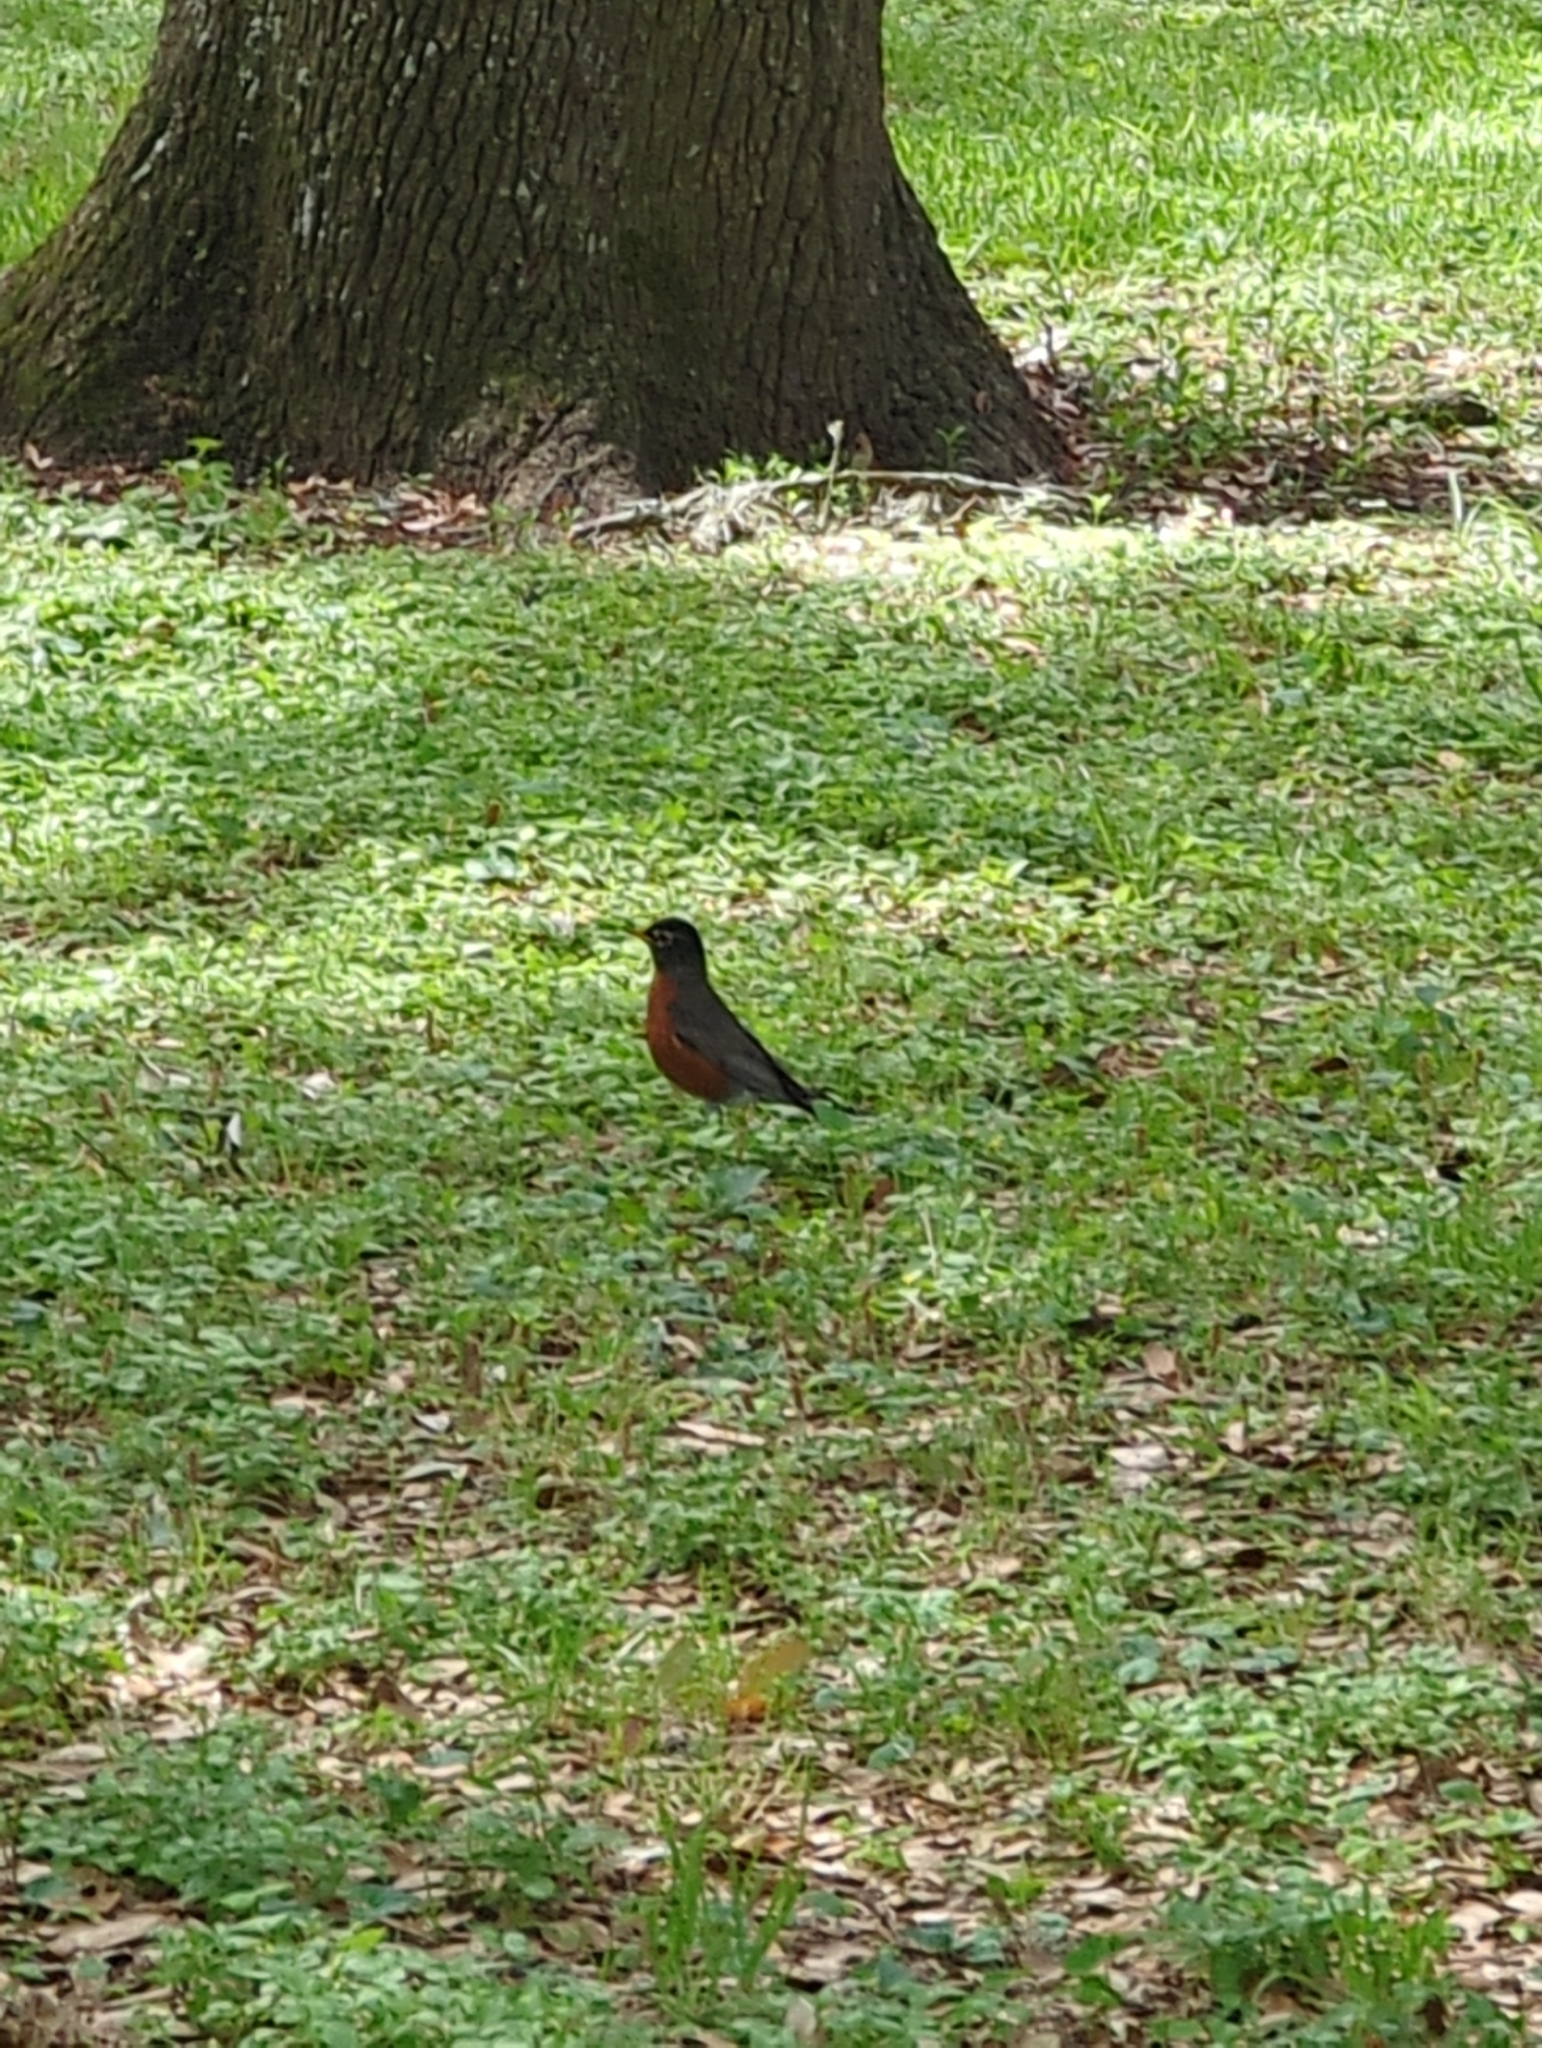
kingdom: Animalia
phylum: Chordata
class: Aves
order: Passeriformes
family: Turdidae
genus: Turdus
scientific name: Turdus migratorius
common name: American robin
